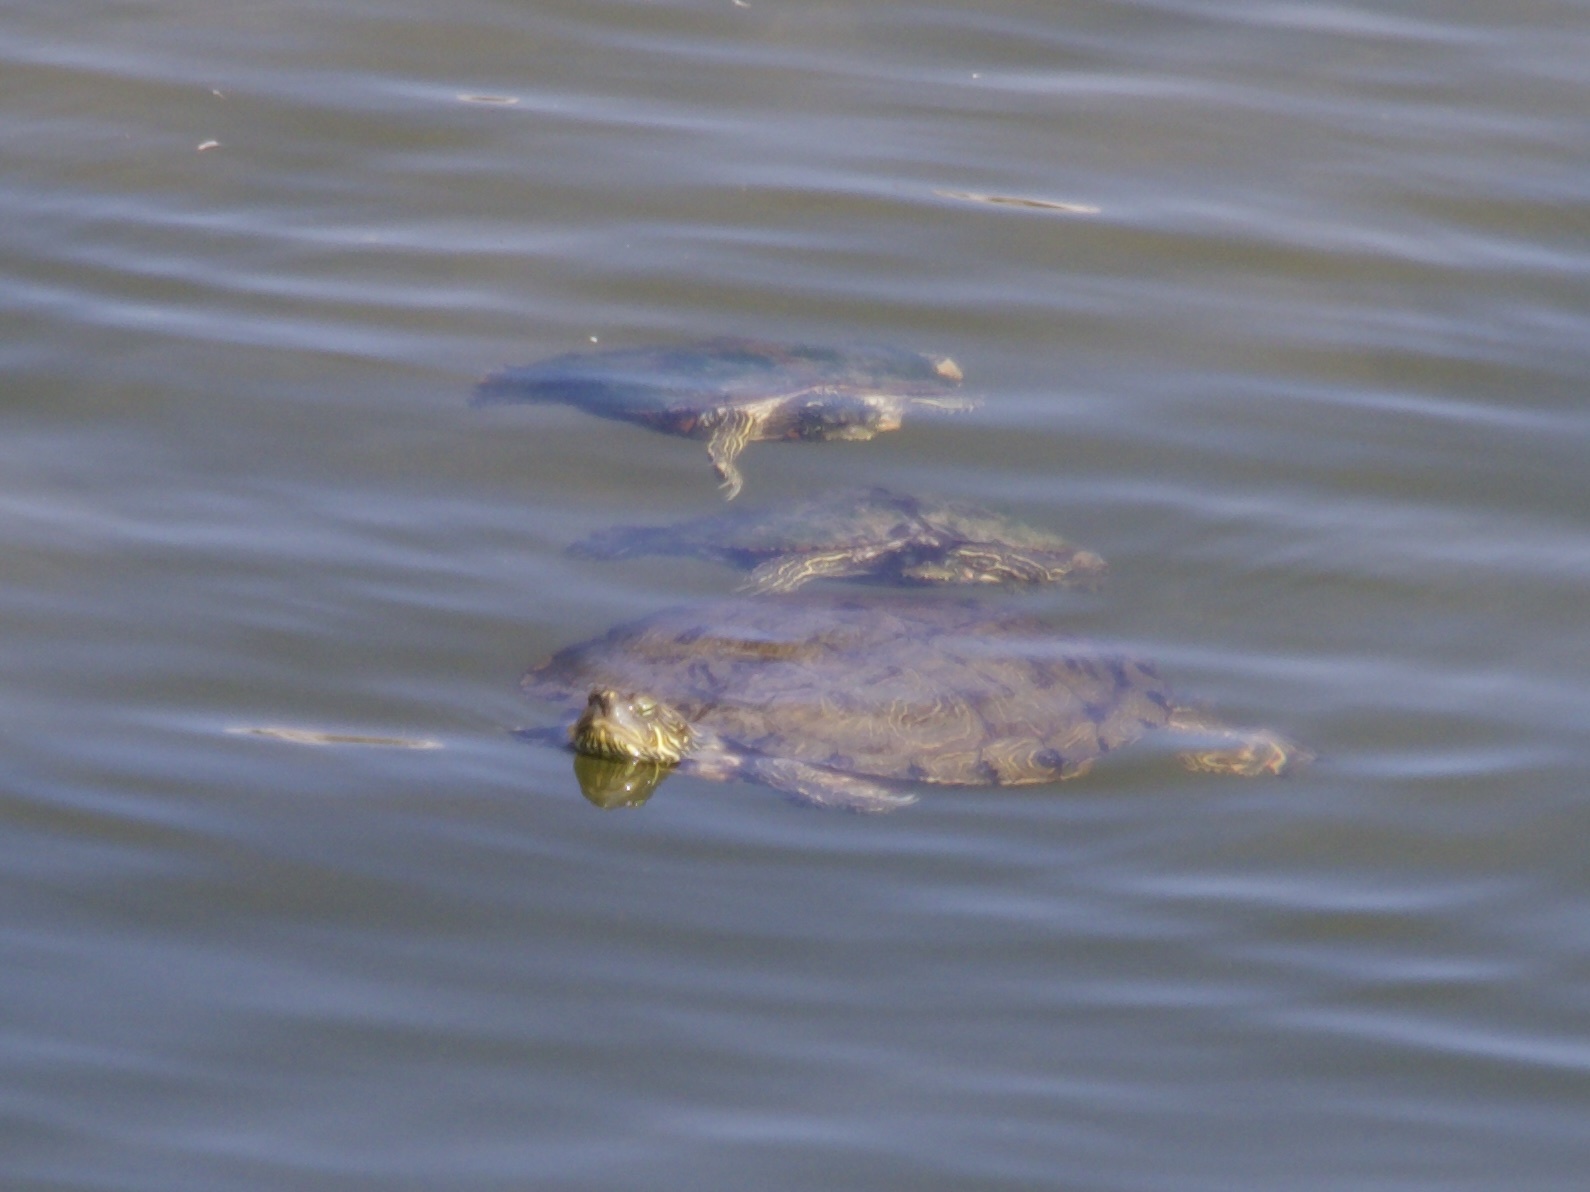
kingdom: Animalia
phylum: Chordata
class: Testudines
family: Emydidae
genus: Trachemys
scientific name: Trachemys scripta
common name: Slider
